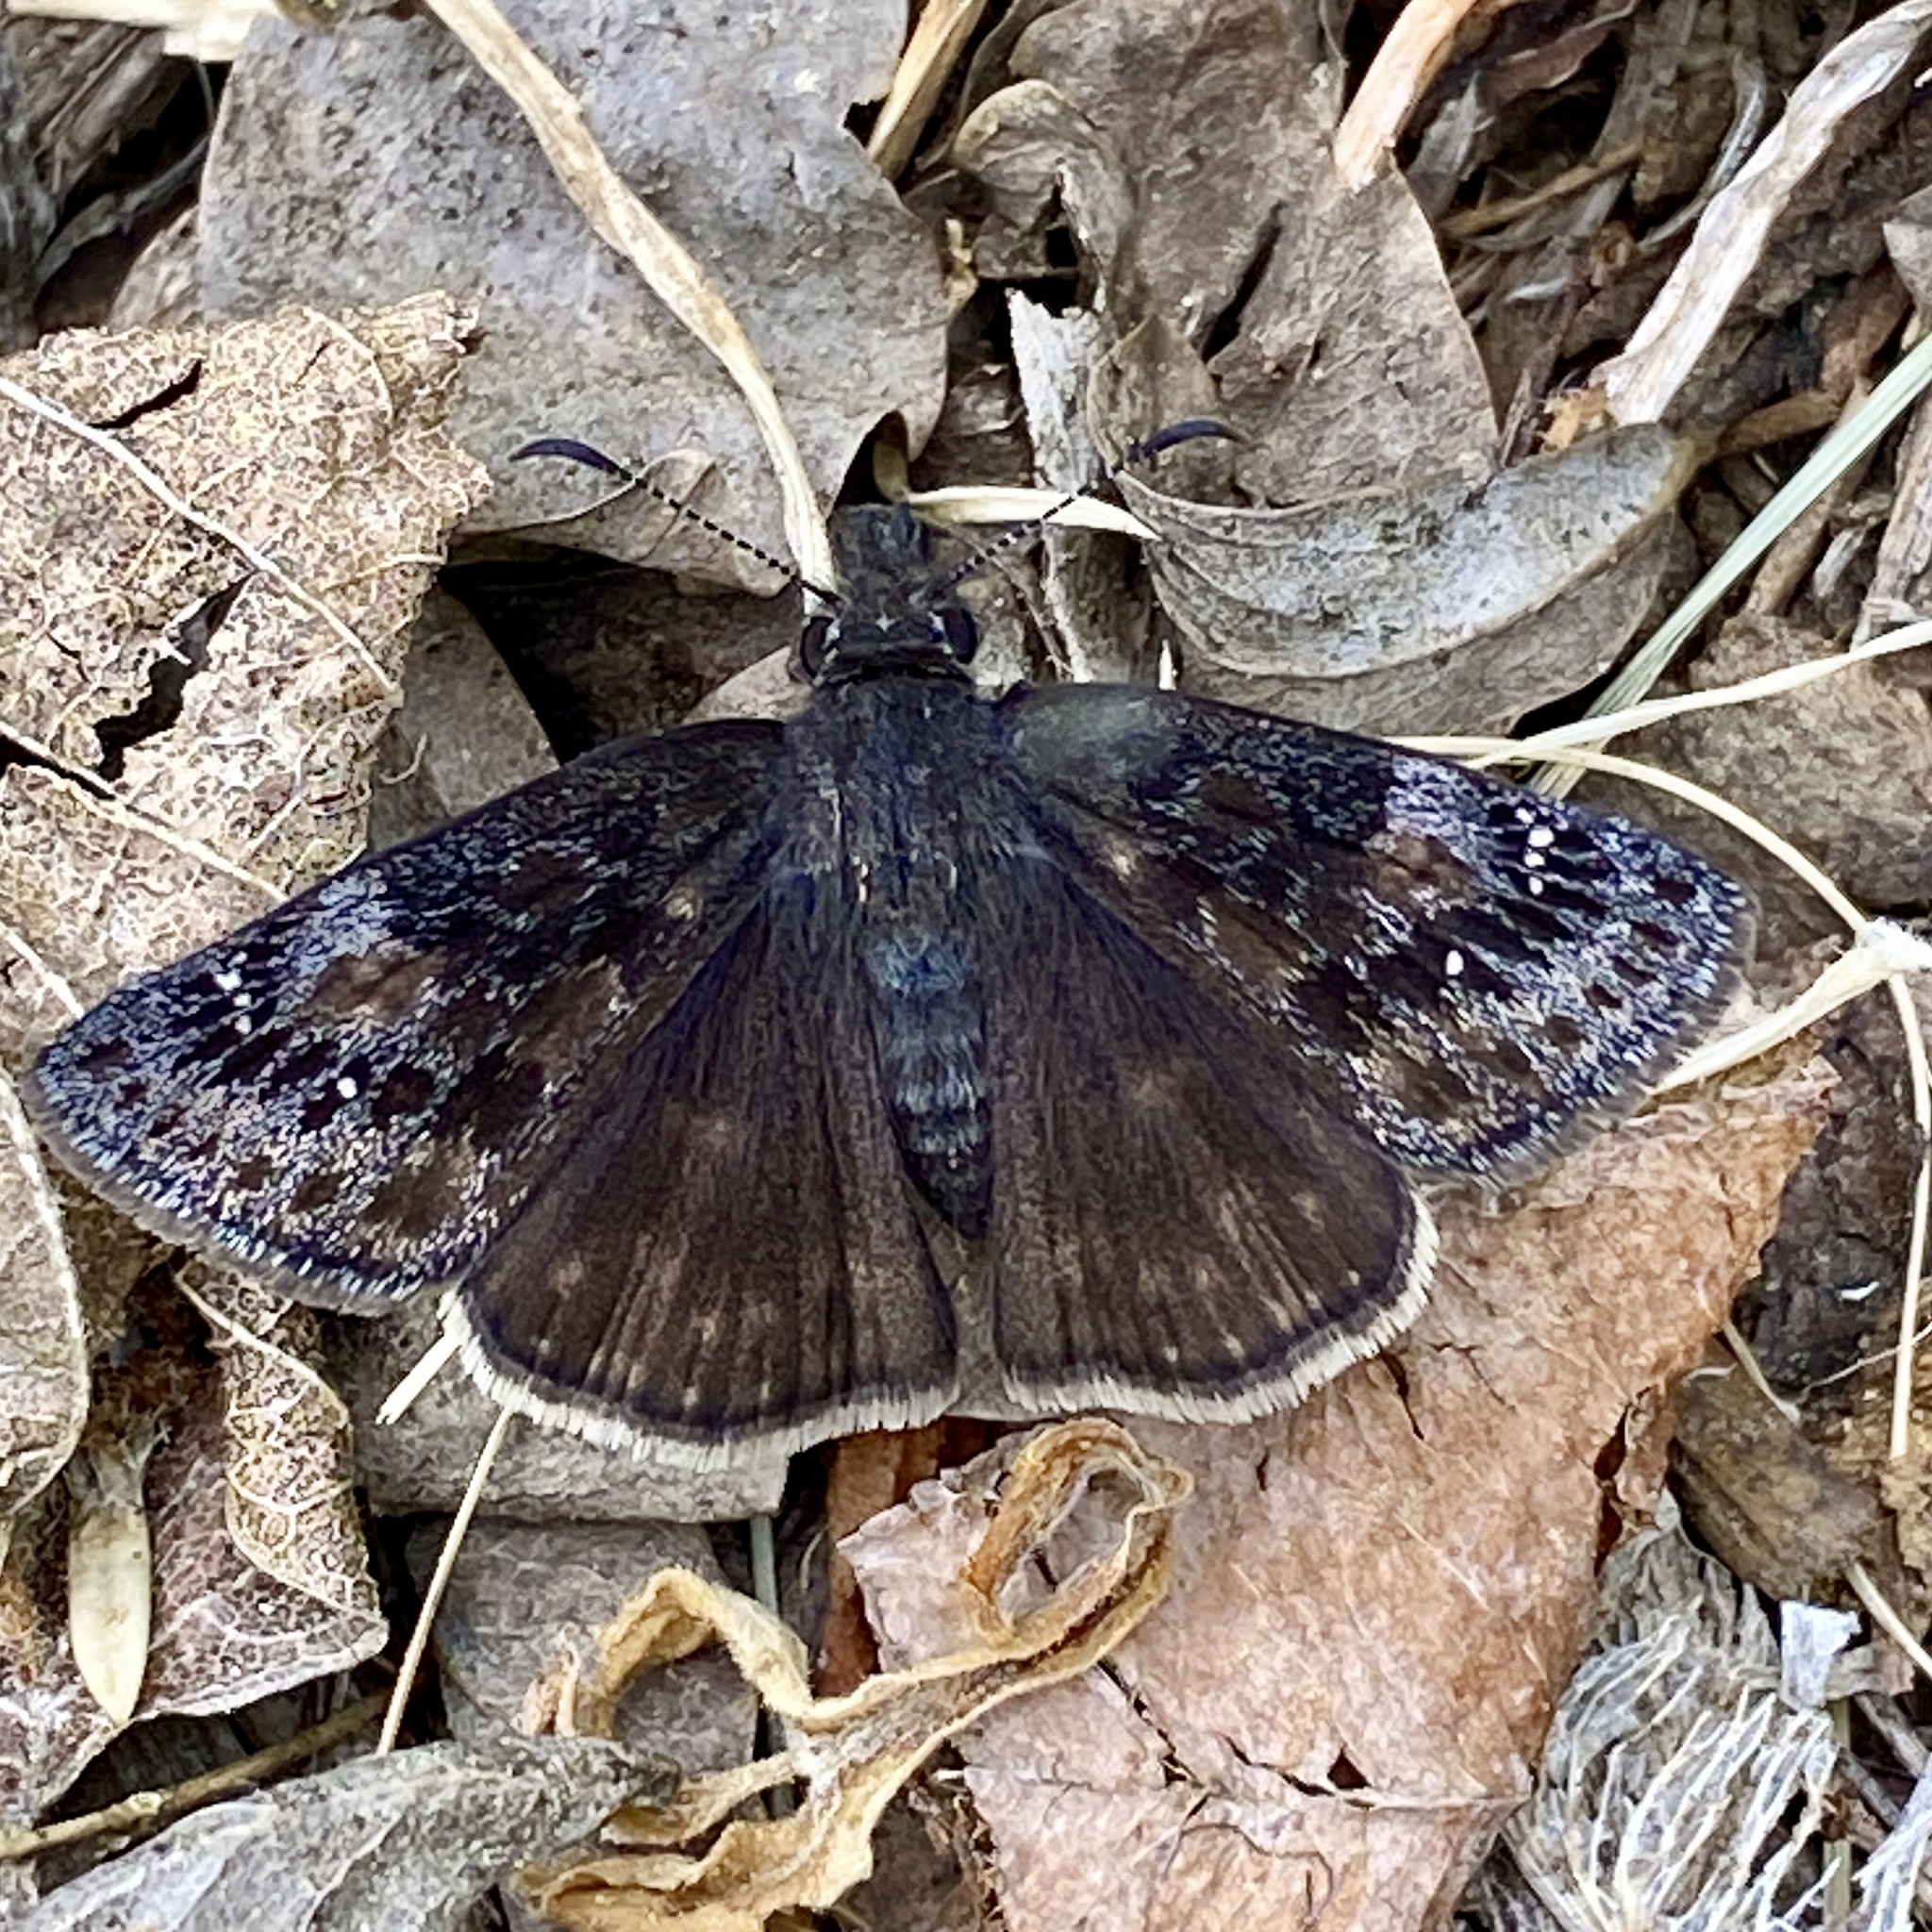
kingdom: Animalia
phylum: Arthropoda
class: Insecta
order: Lepidoptera
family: Hesperiidae
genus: Erynnis
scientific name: Erynnis baptisiae
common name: Wild indigo duskywing
